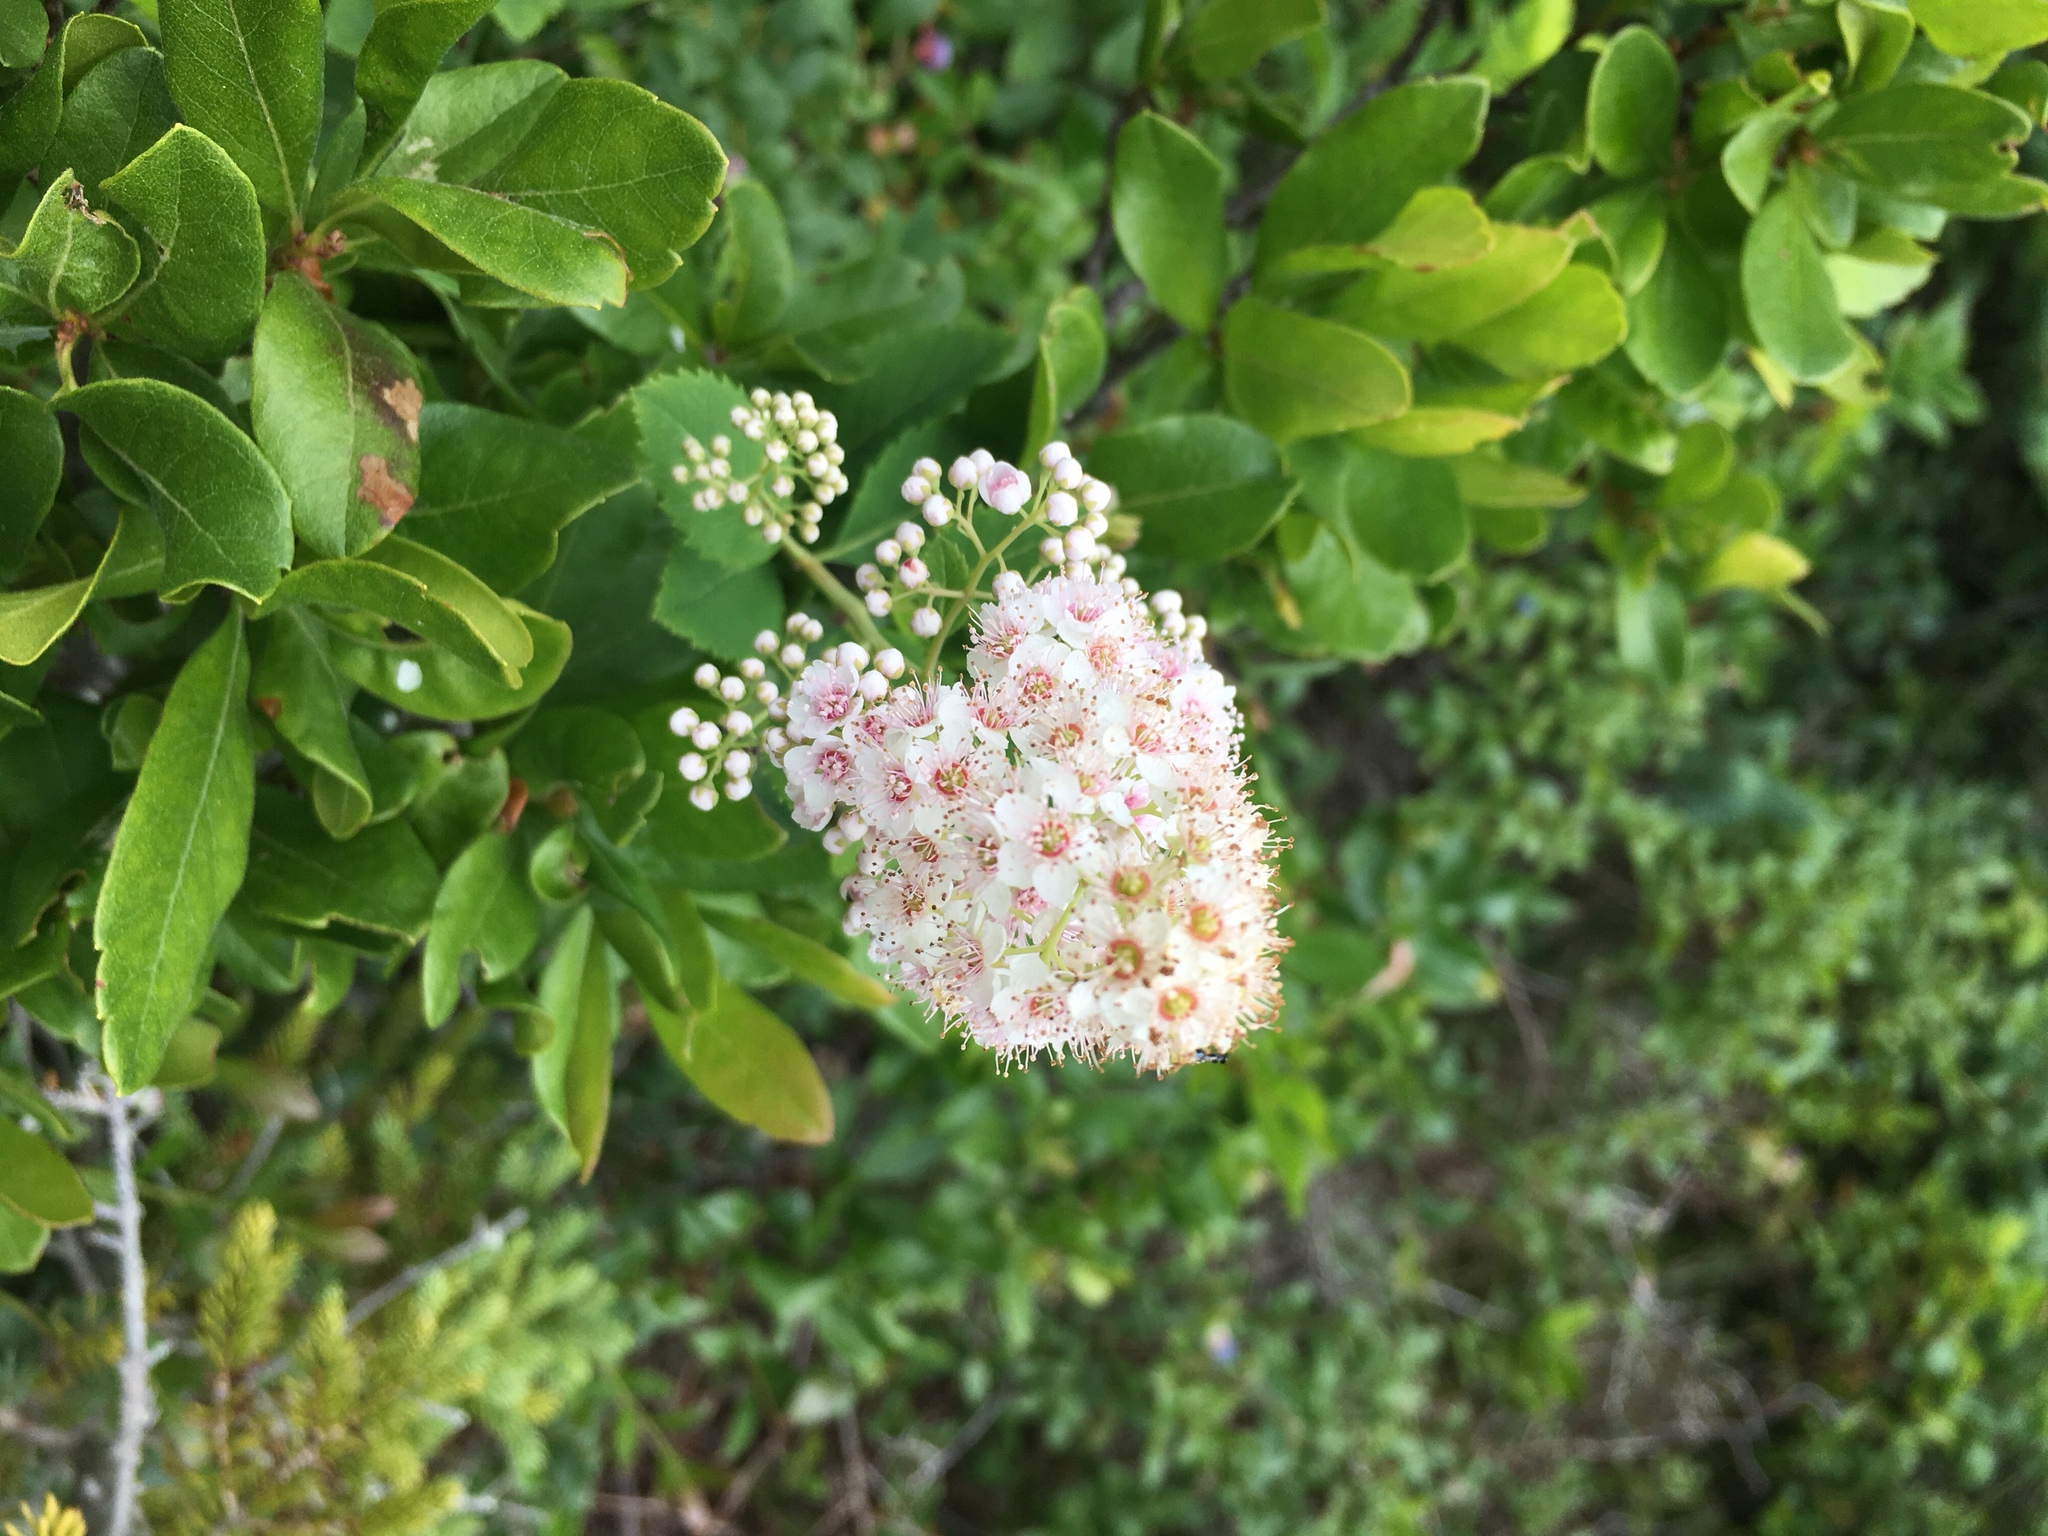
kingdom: Plantae
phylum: Tracheophyta
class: Magnoliopsida
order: Rosales
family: Rosaceae
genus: Spiraea
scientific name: Spiraea alba
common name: Pale bridewort
